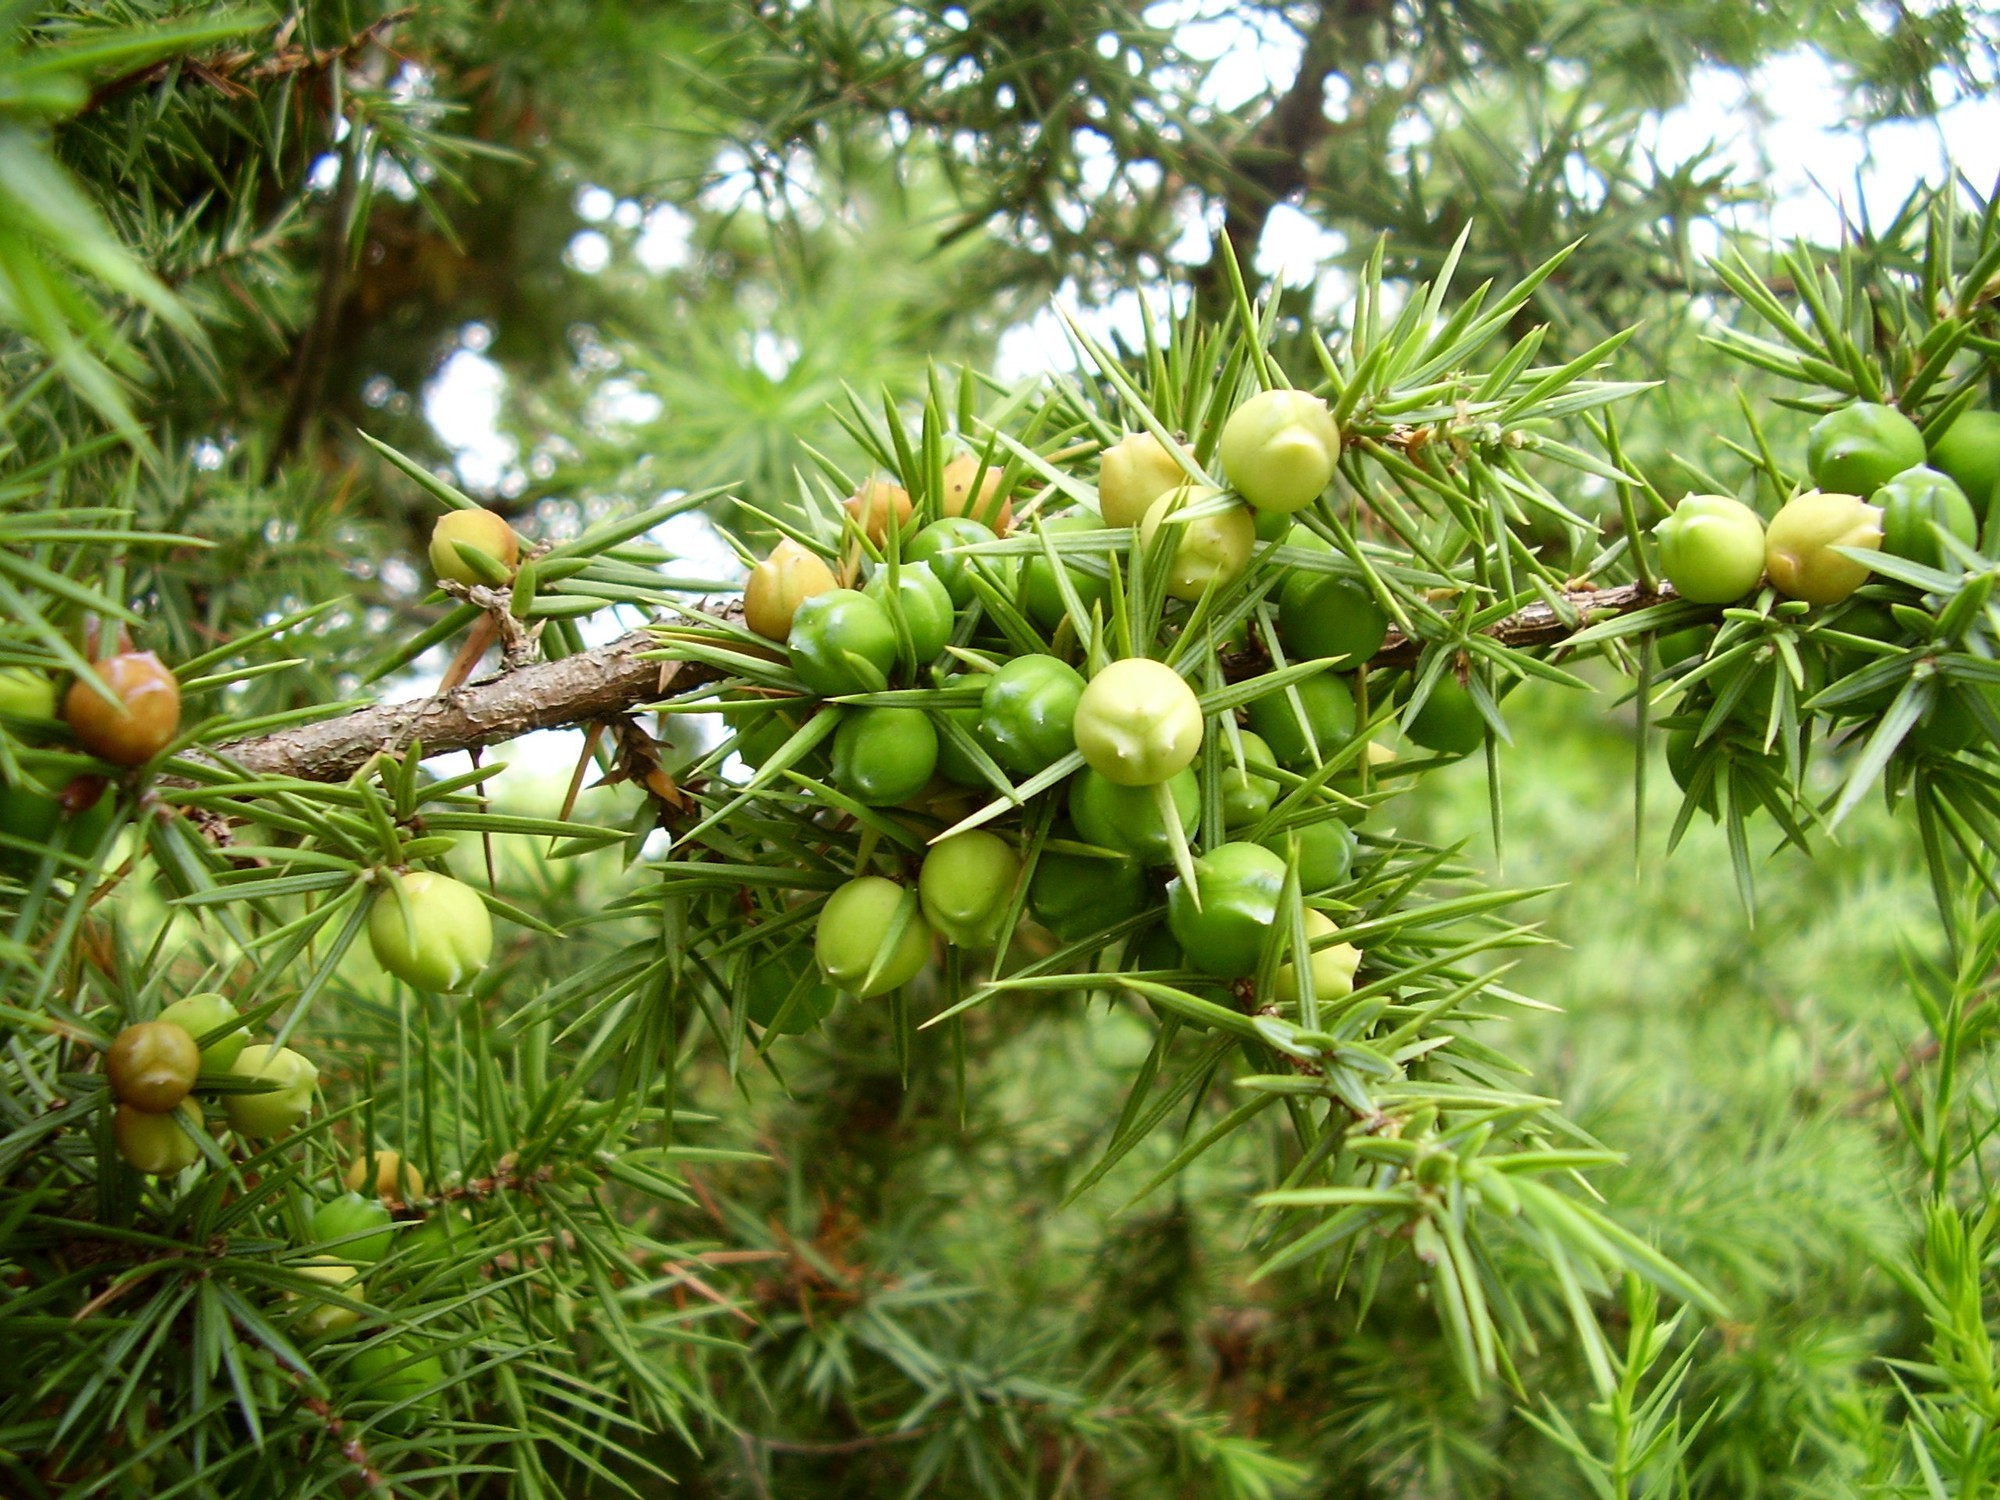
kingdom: Plantae
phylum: Tracheophyta
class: Pinopsida
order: Pinales
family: Cupressaceae
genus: Juniperus
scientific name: Juniperus oxycedrus
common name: Prickly juniper
